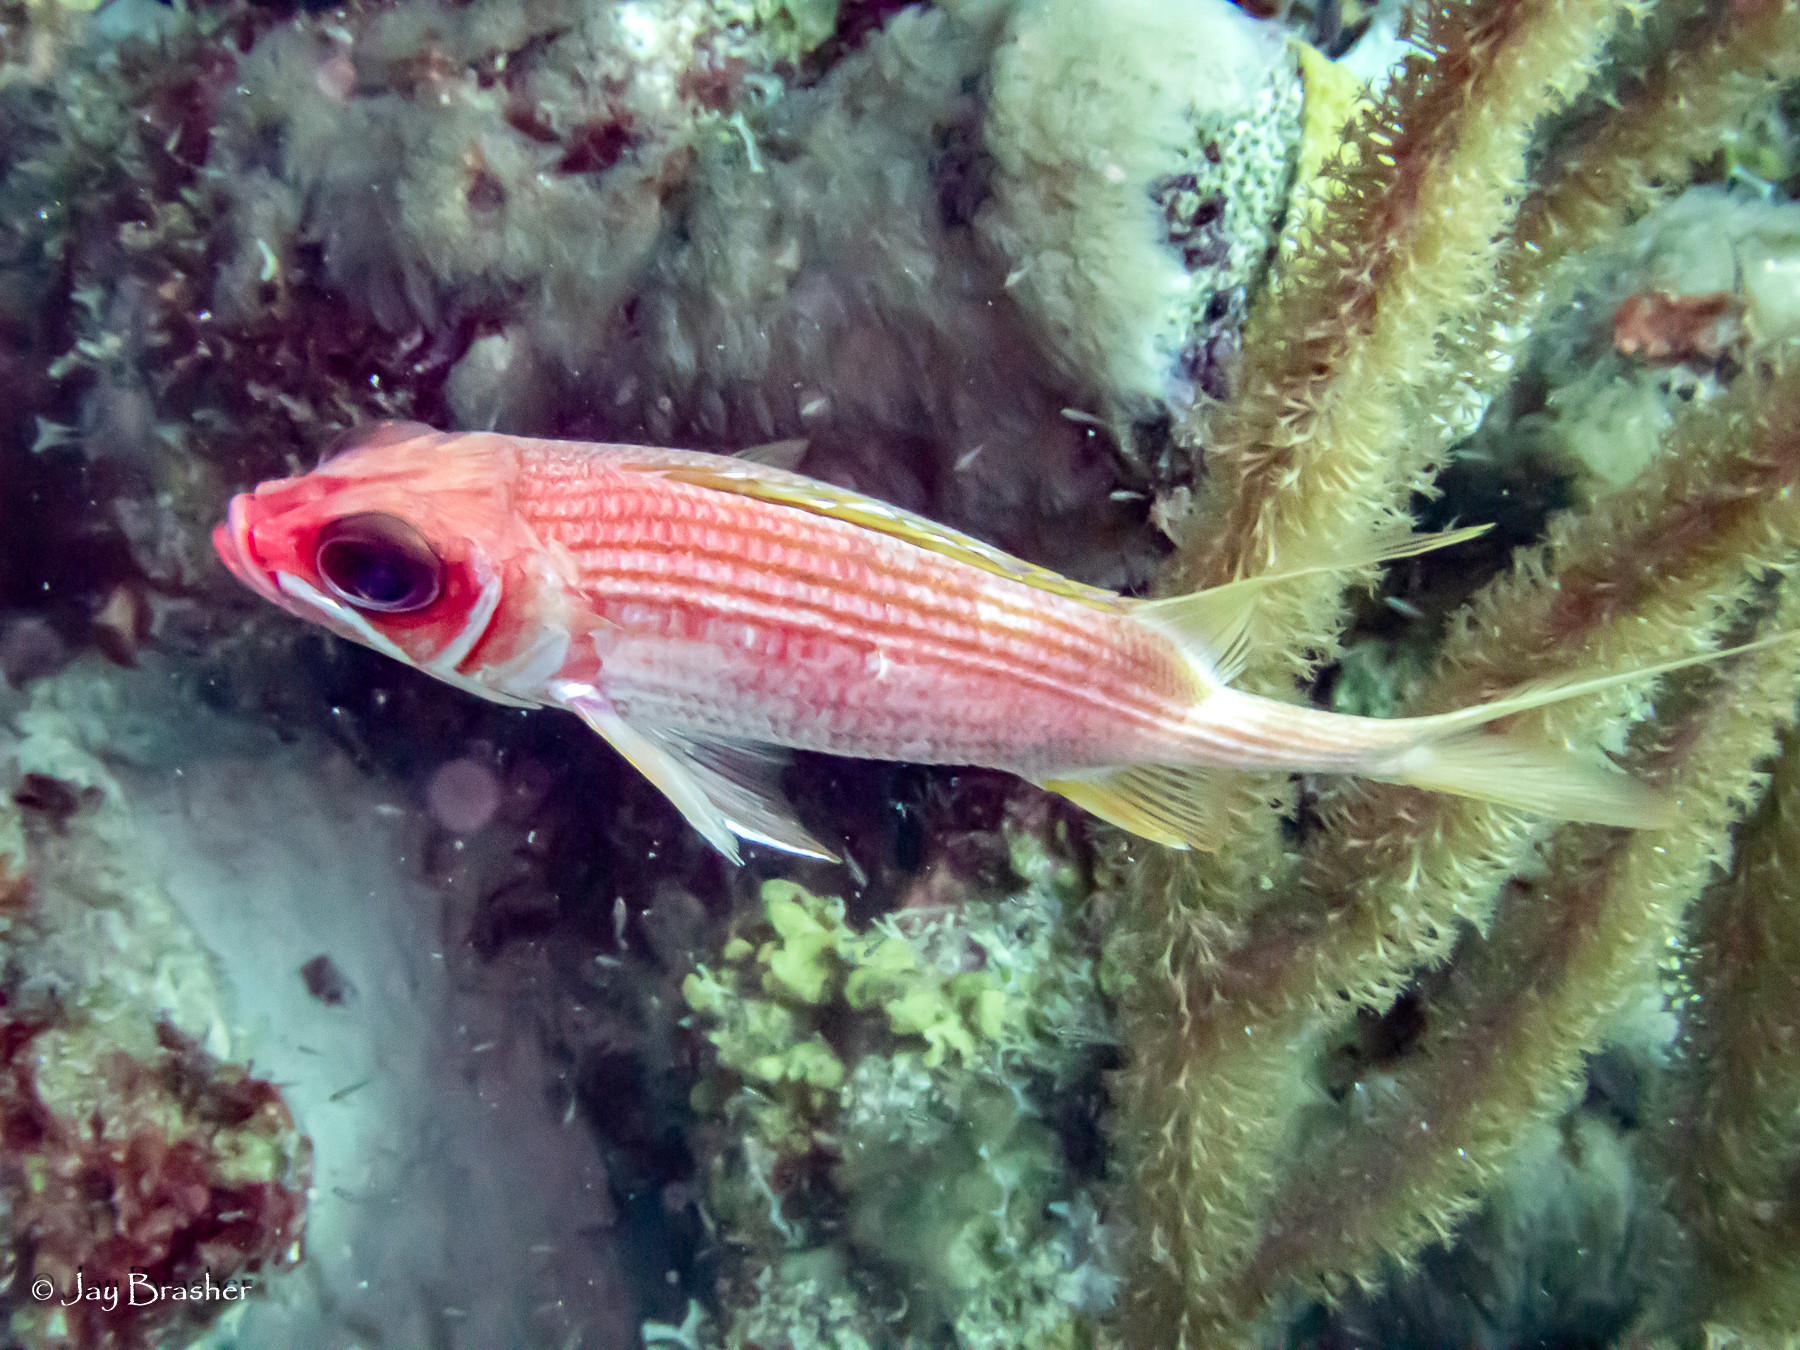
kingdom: Animalia
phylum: Chordata
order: Beryciformes
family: Holocentridae
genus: Holocentrus
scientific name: Holocentrus rufus
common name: Longspine squirrelfish
